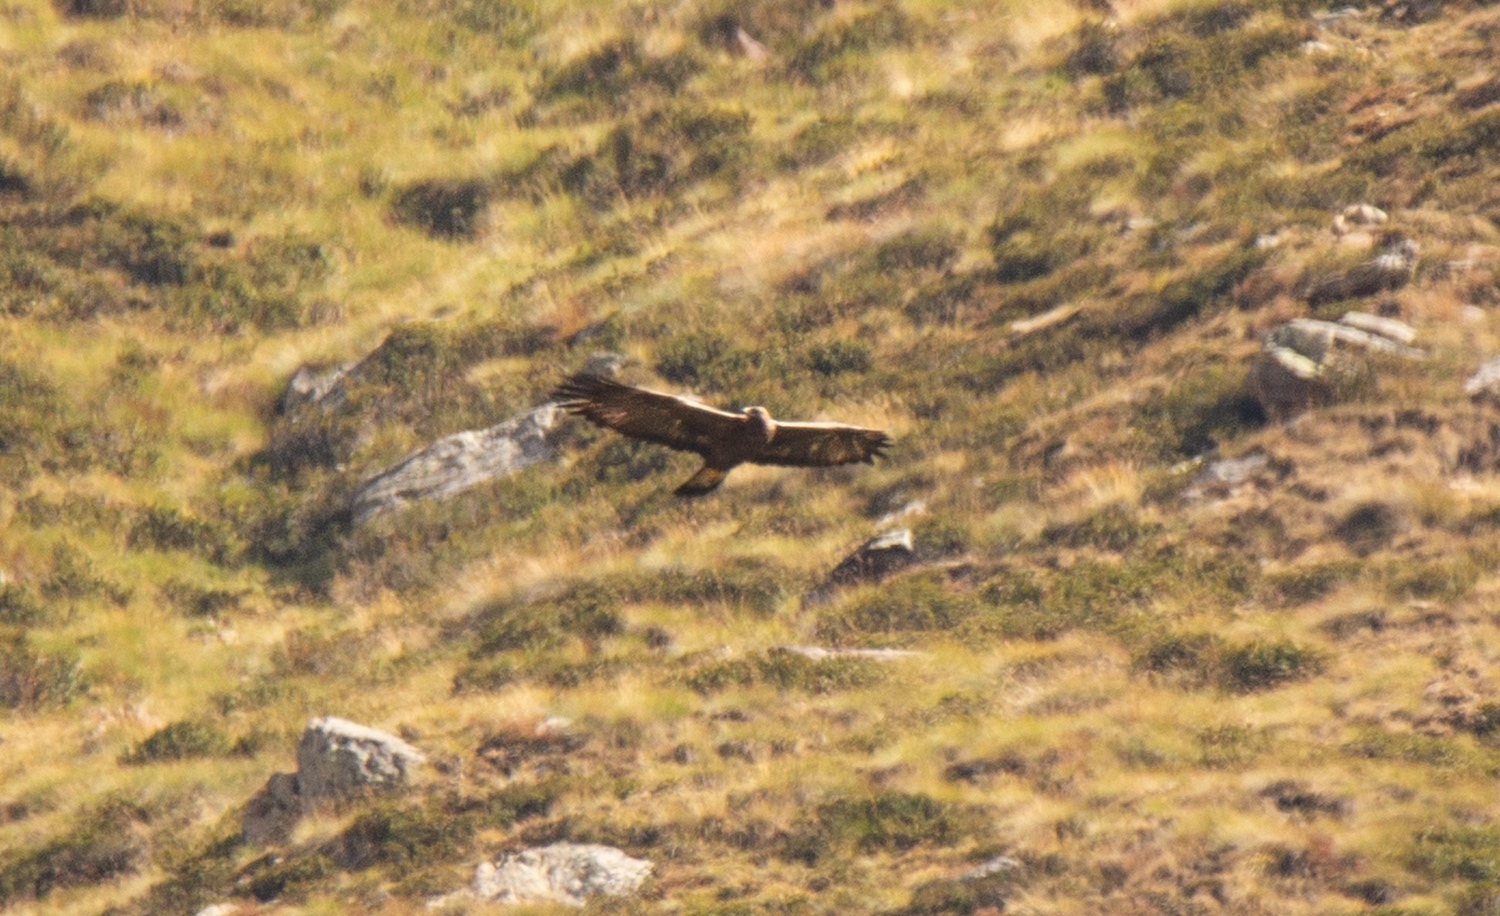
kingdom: Animalia
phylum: Chordata
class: Aves
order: Accipitriformes
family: Accipitridae
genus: Aquila
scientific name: Aquila chrysaetos
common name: Golden eagle
